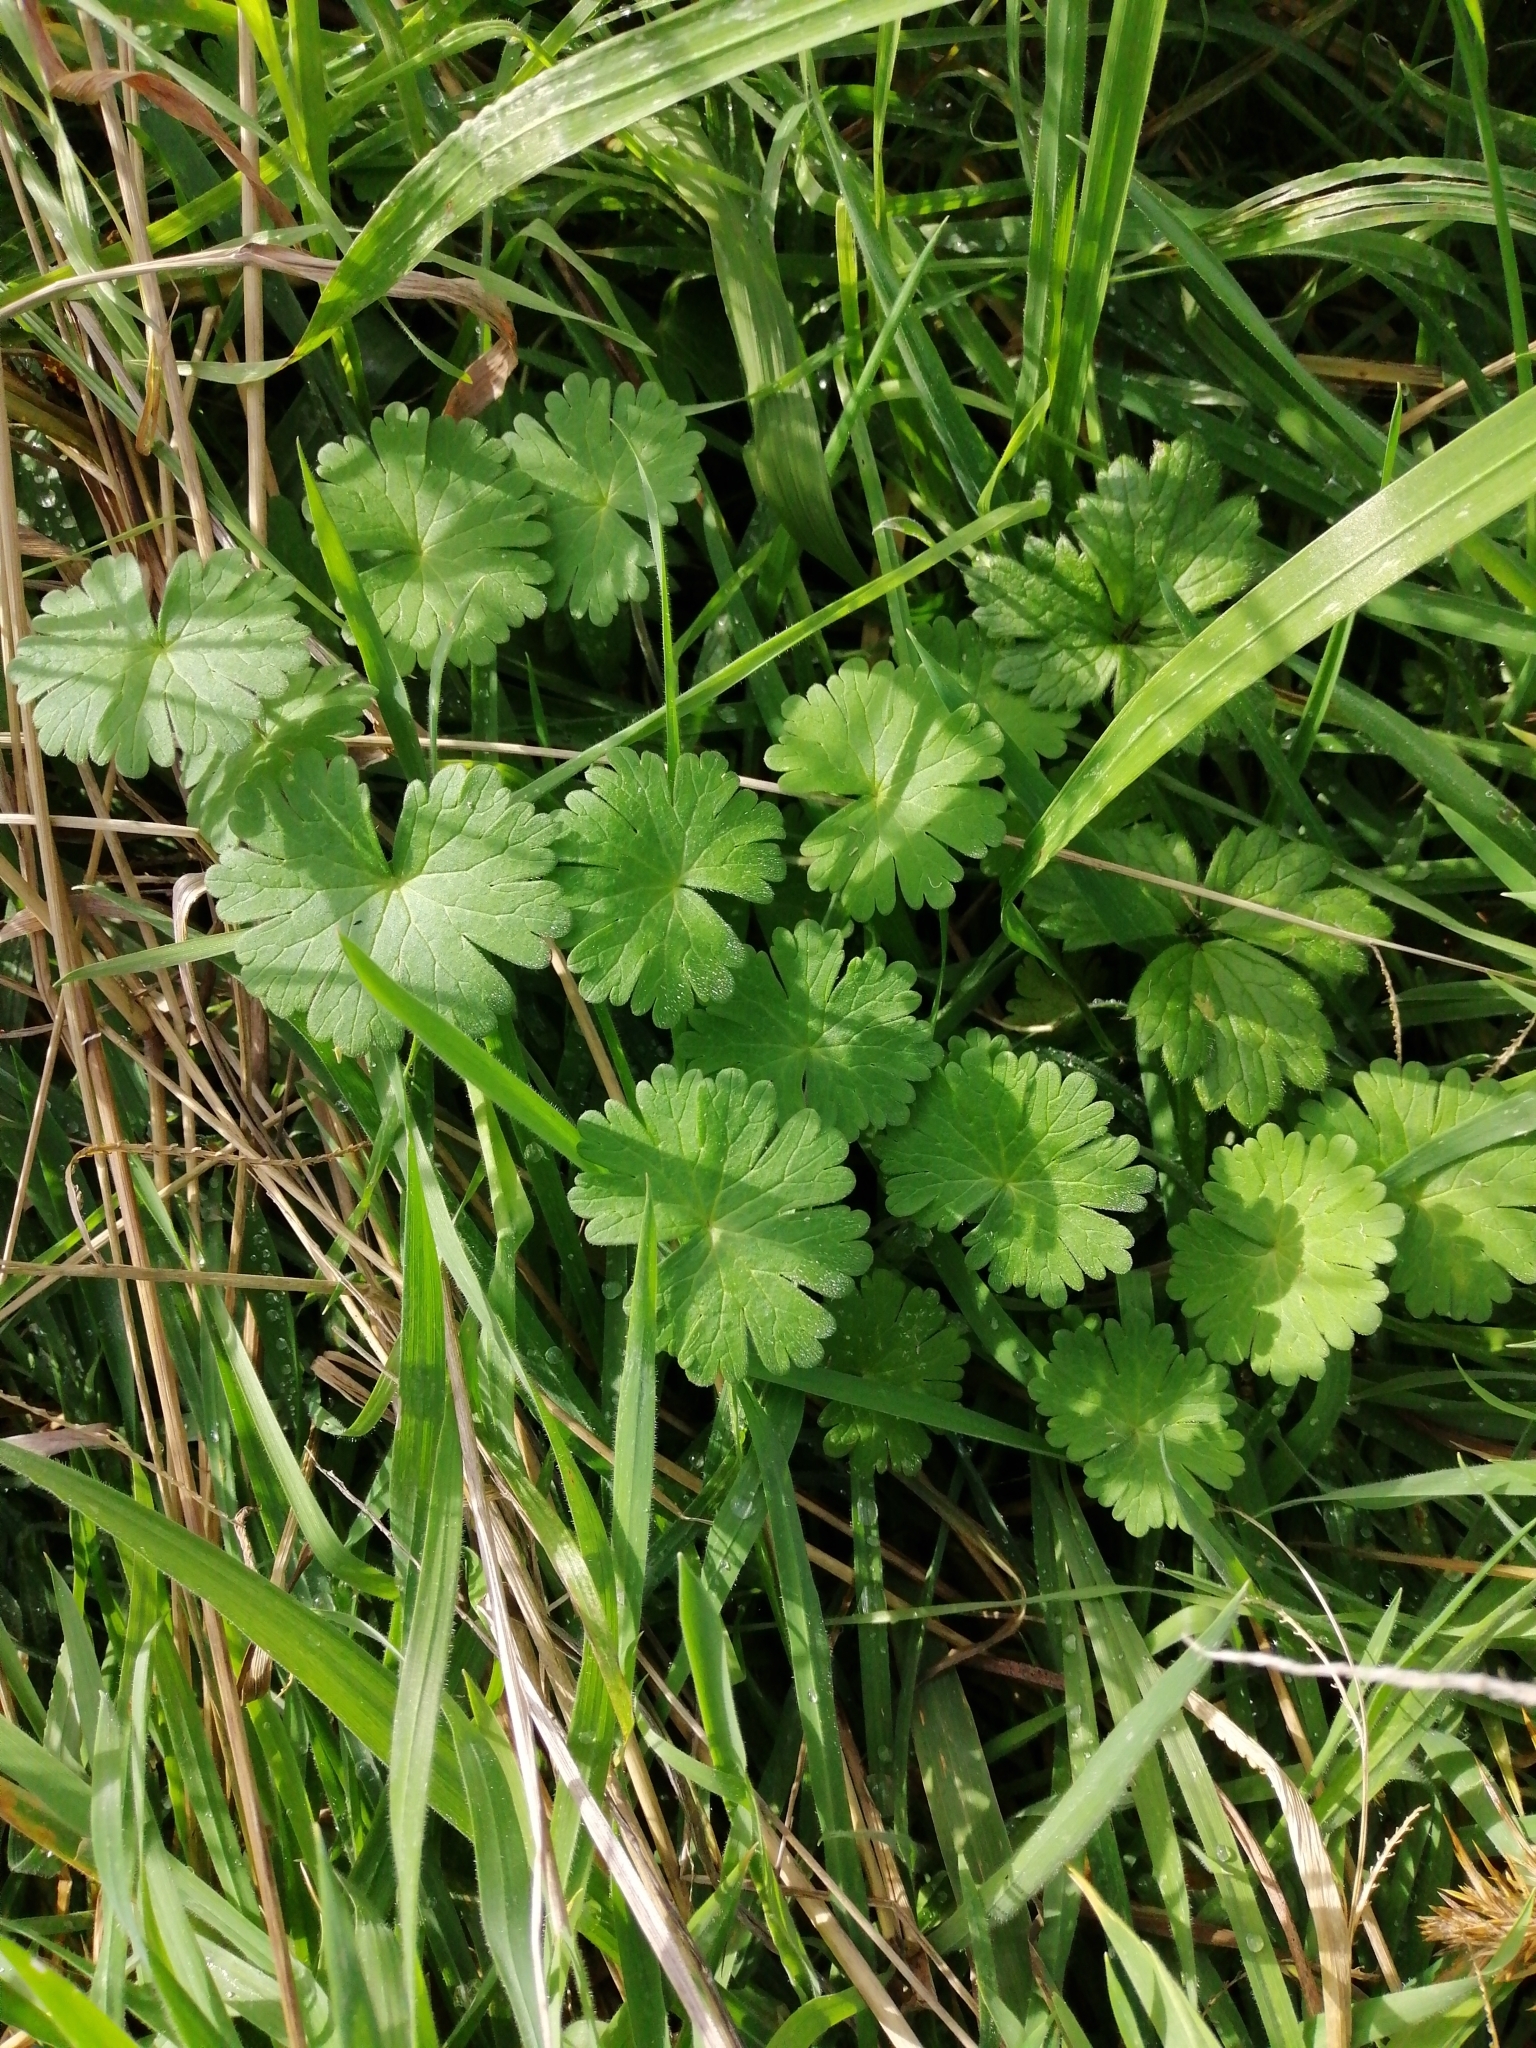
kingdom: Plantae
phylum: Tracheophyta
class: Magnoliopsida
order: Geraniales
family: Geraniaceae
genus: Geranium
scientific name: Geranium molle
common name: Dove's-foot crane's-bill
